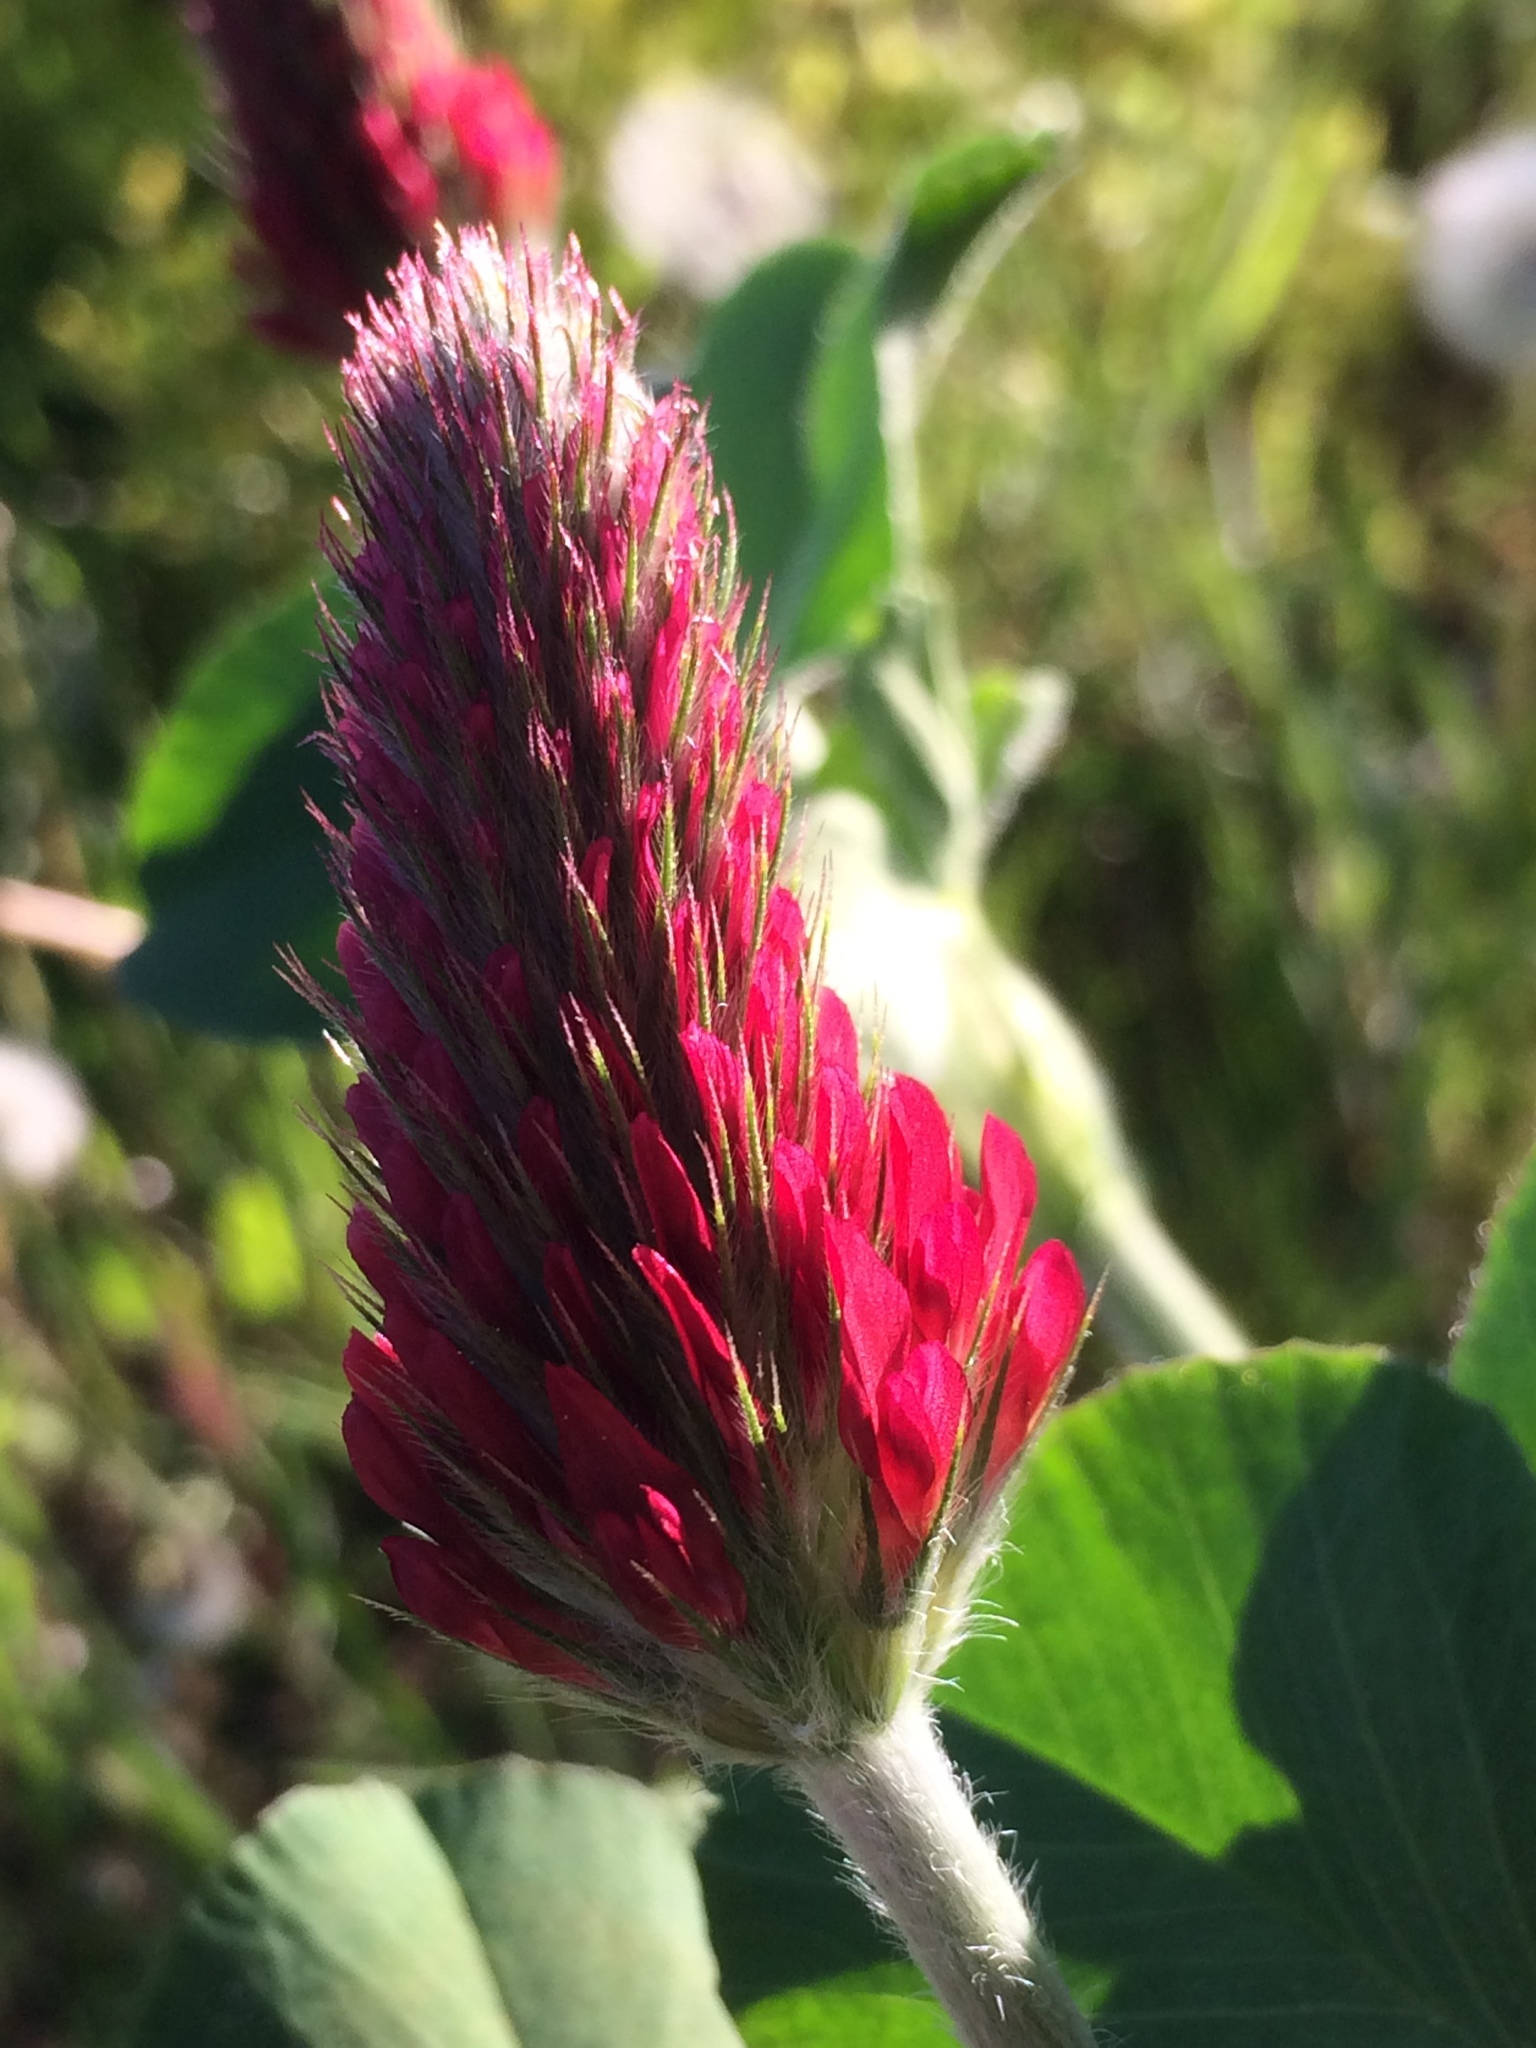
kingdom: Plantae
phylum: Tracheophyta
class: Magnoliopsida
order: Fabales
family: Fabaceae
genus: Trifolium
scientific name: Trifolium incarnatum
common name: Crimson clover
